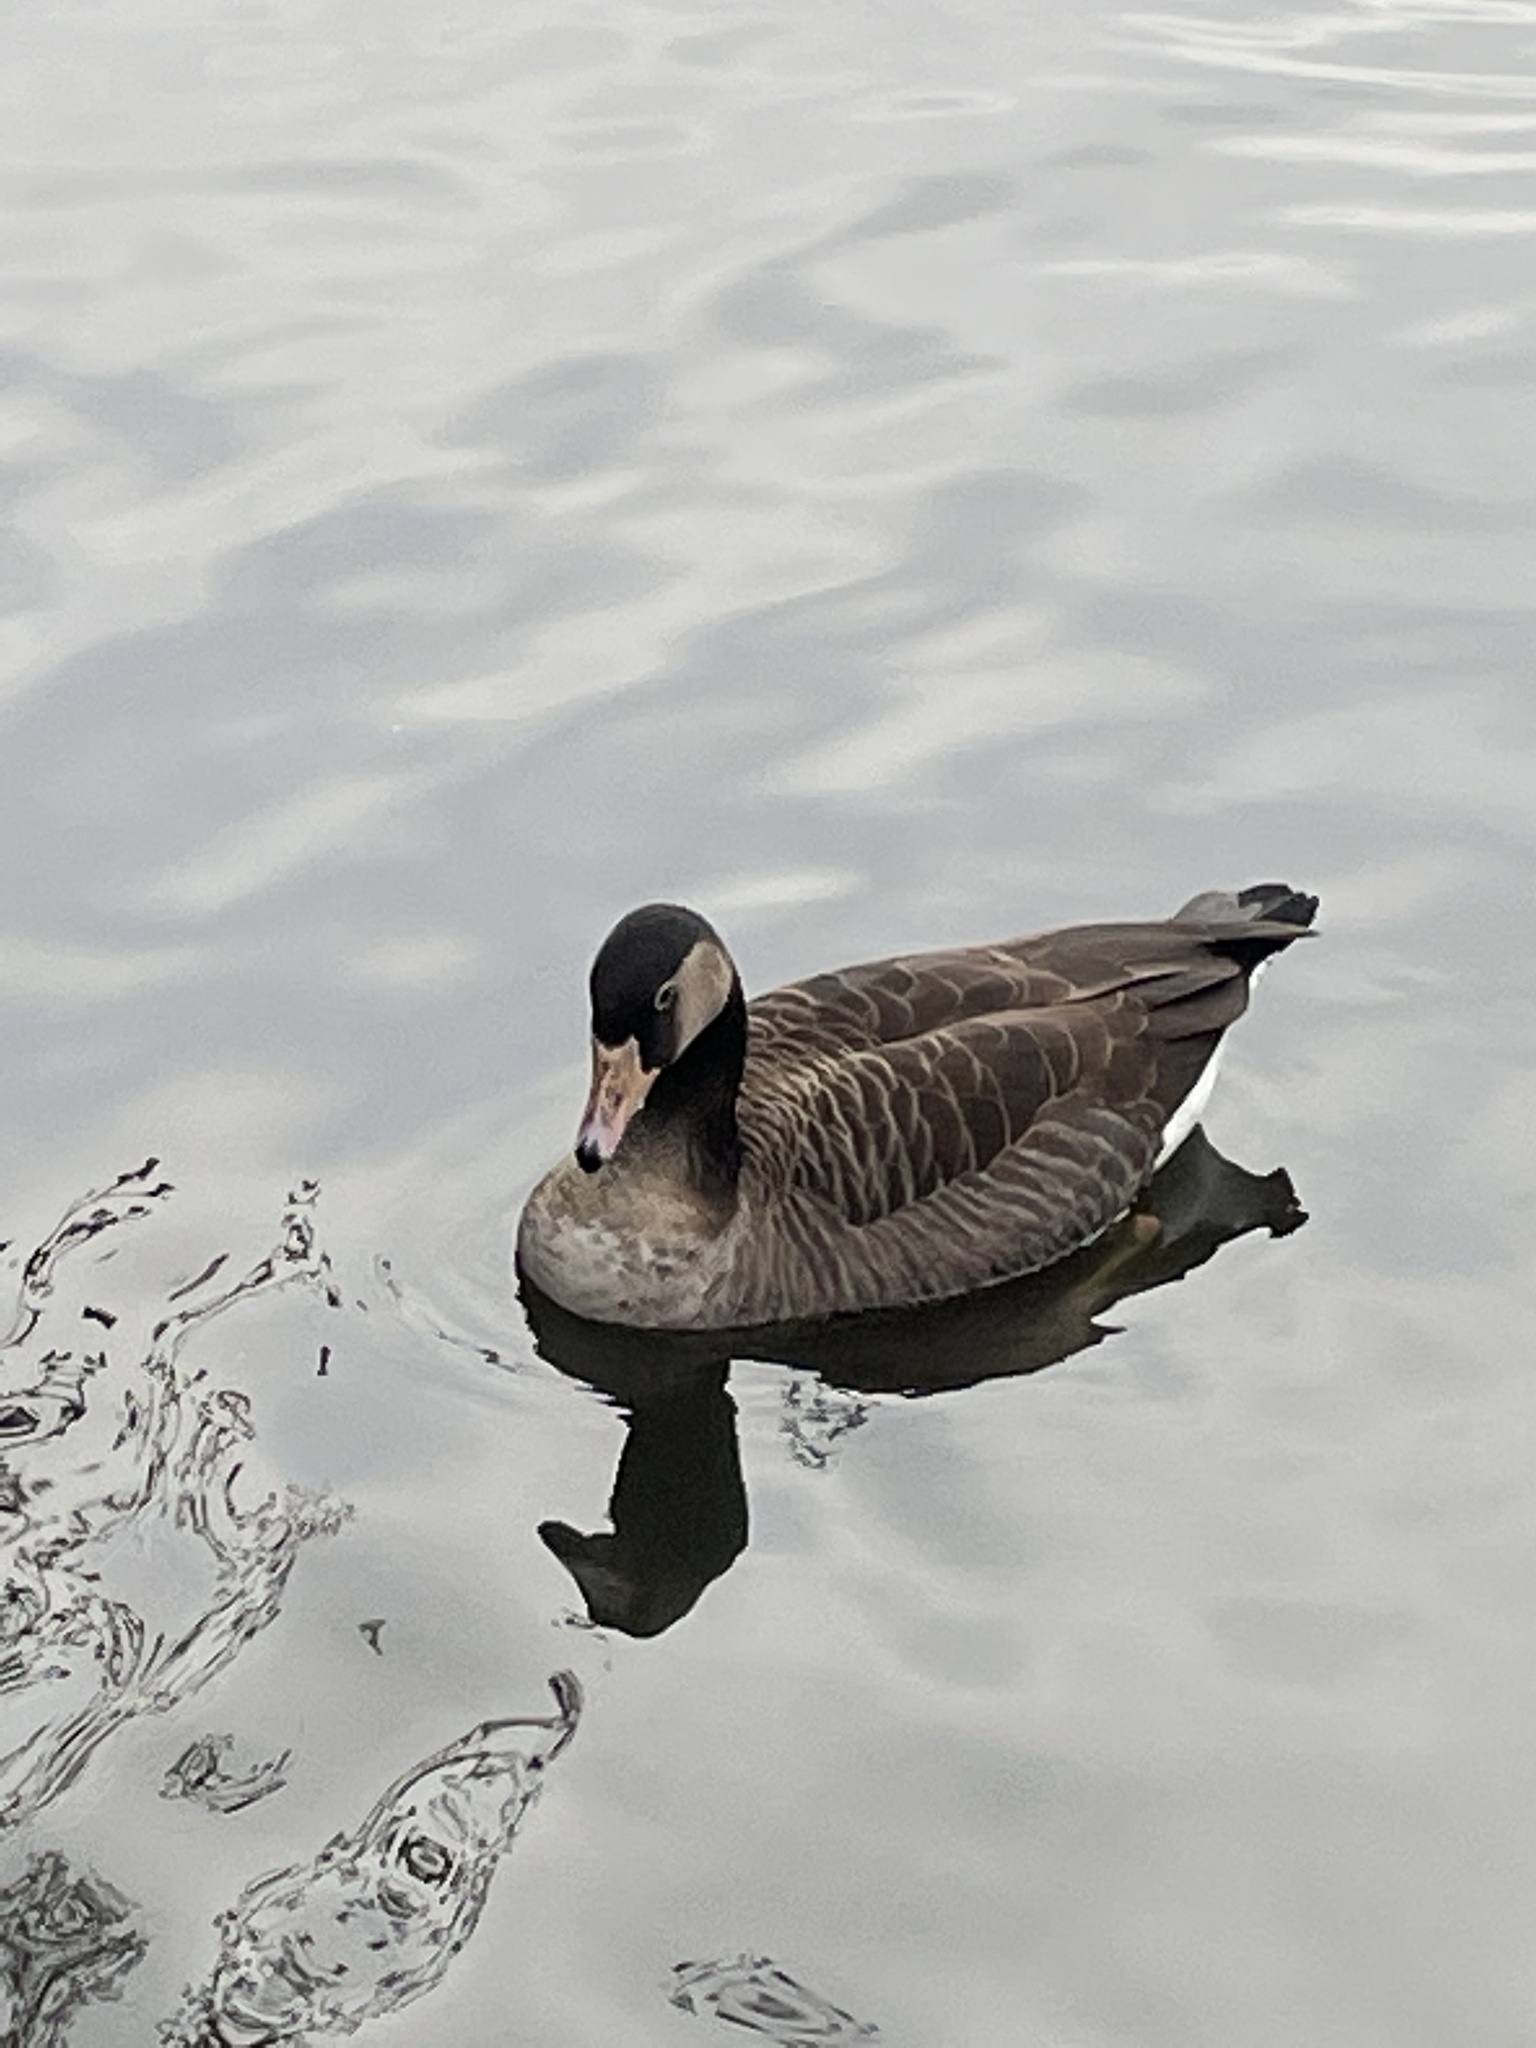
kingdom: Animalia
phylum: Chordata
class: Aves
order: Anseriformes
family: Anatidae
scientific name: Anatidae
